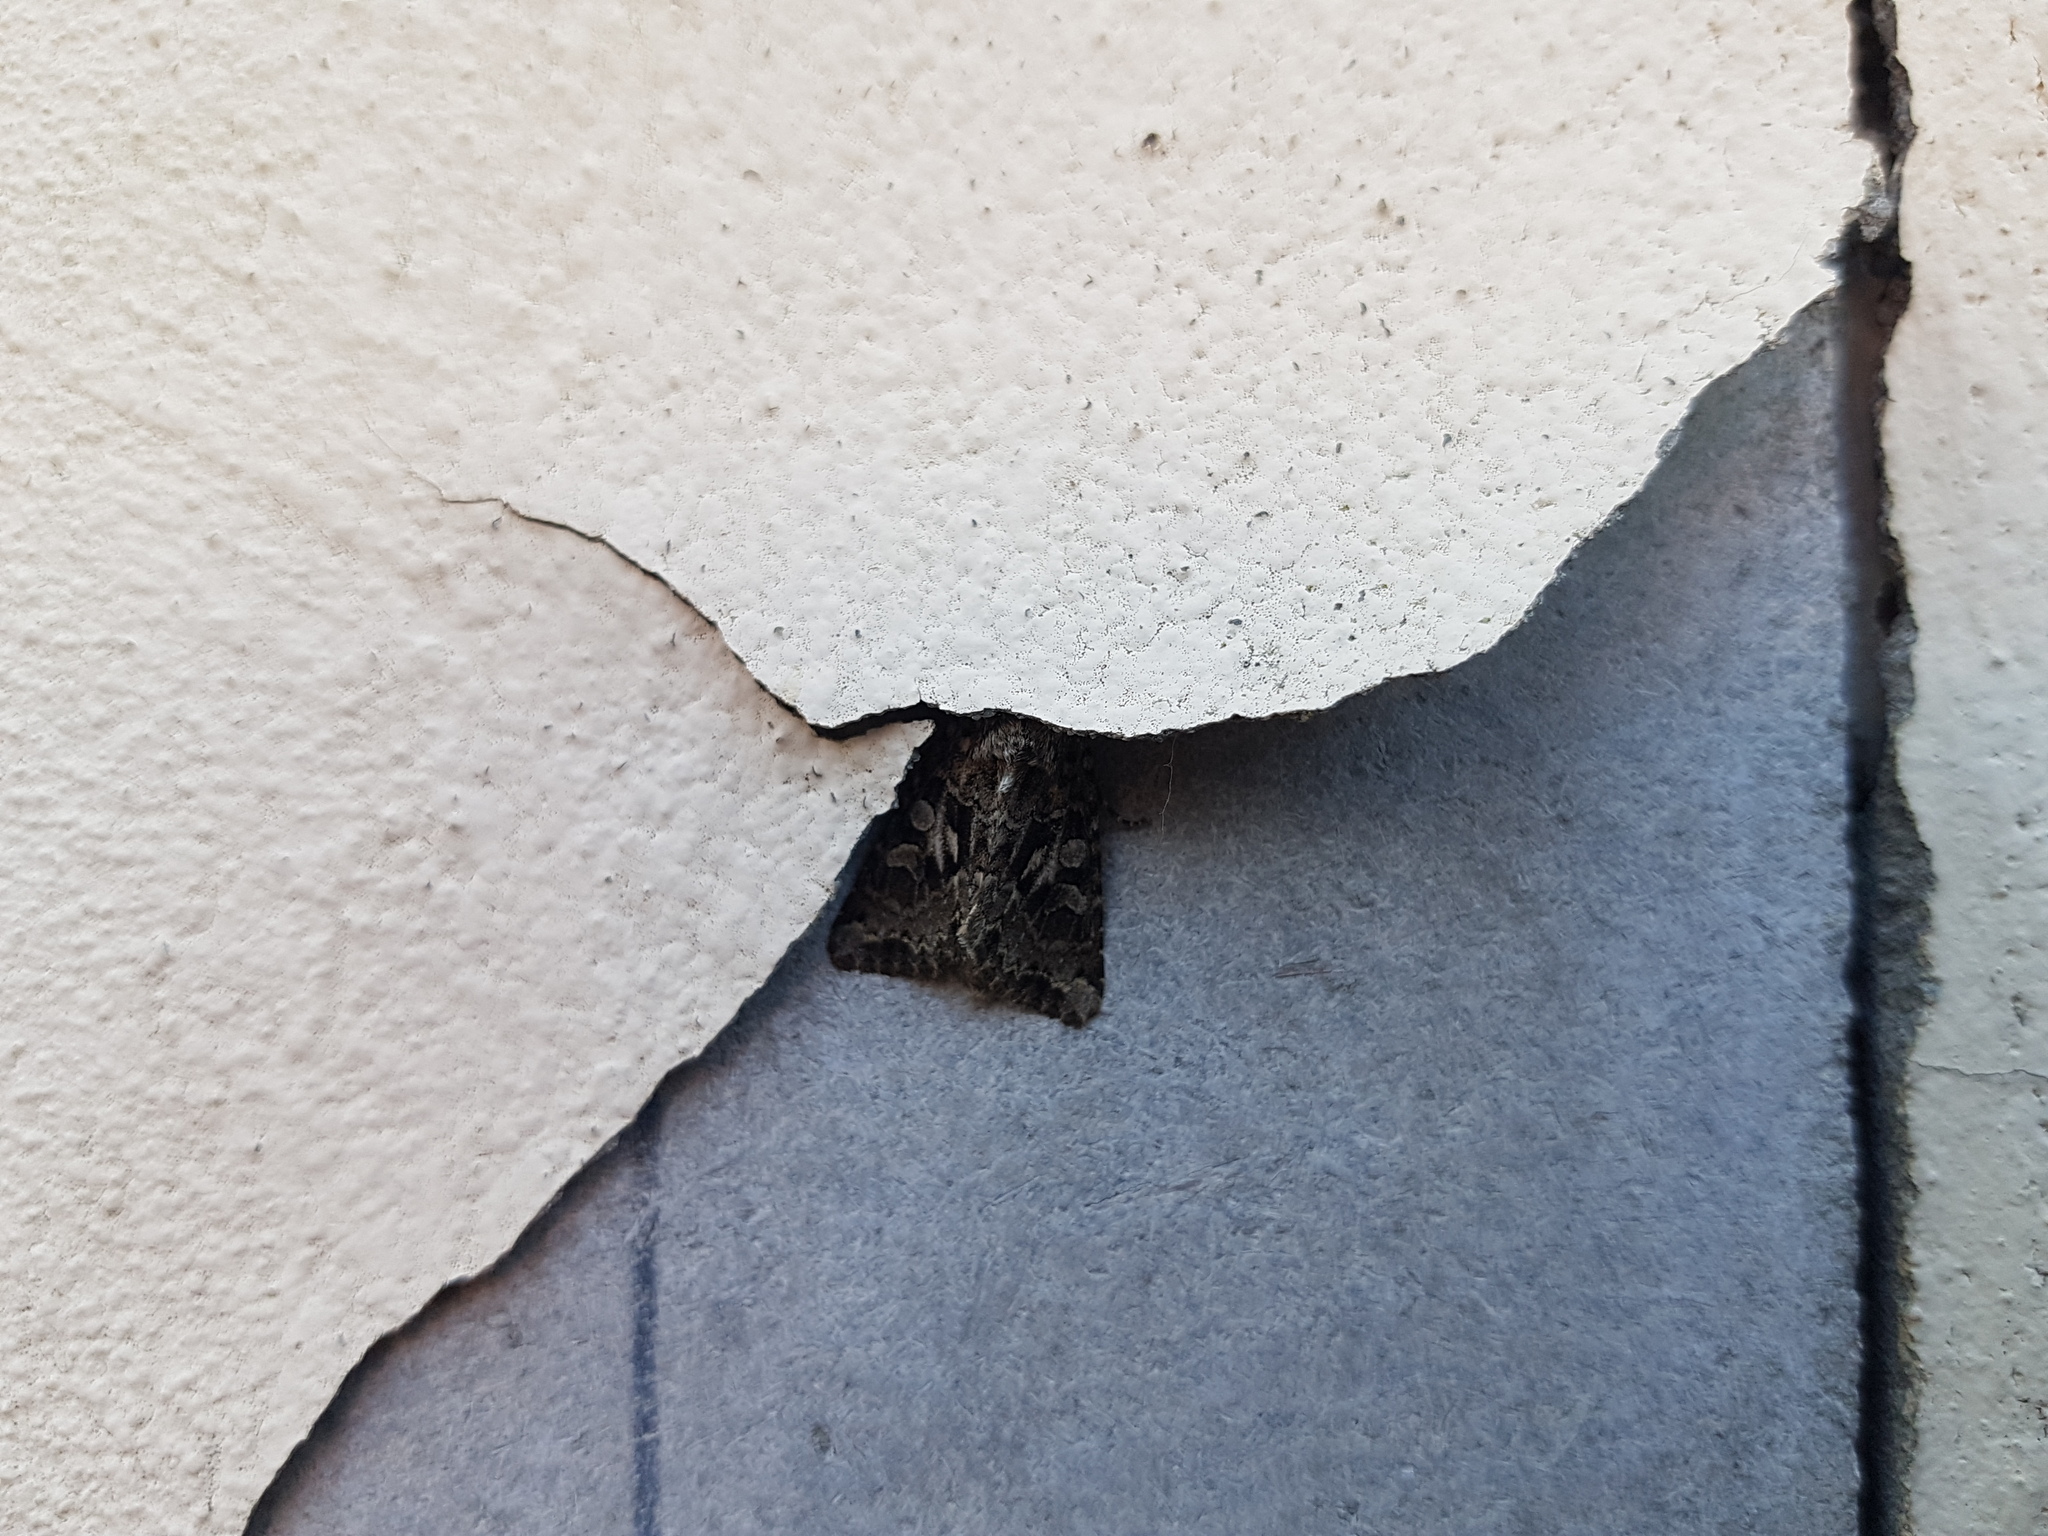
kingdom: Animalia
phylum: Arthropoda
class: Insecta
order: Lepidoptera
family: Noctuidae
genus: Hada
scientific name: Hada plebeja
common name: Shears
